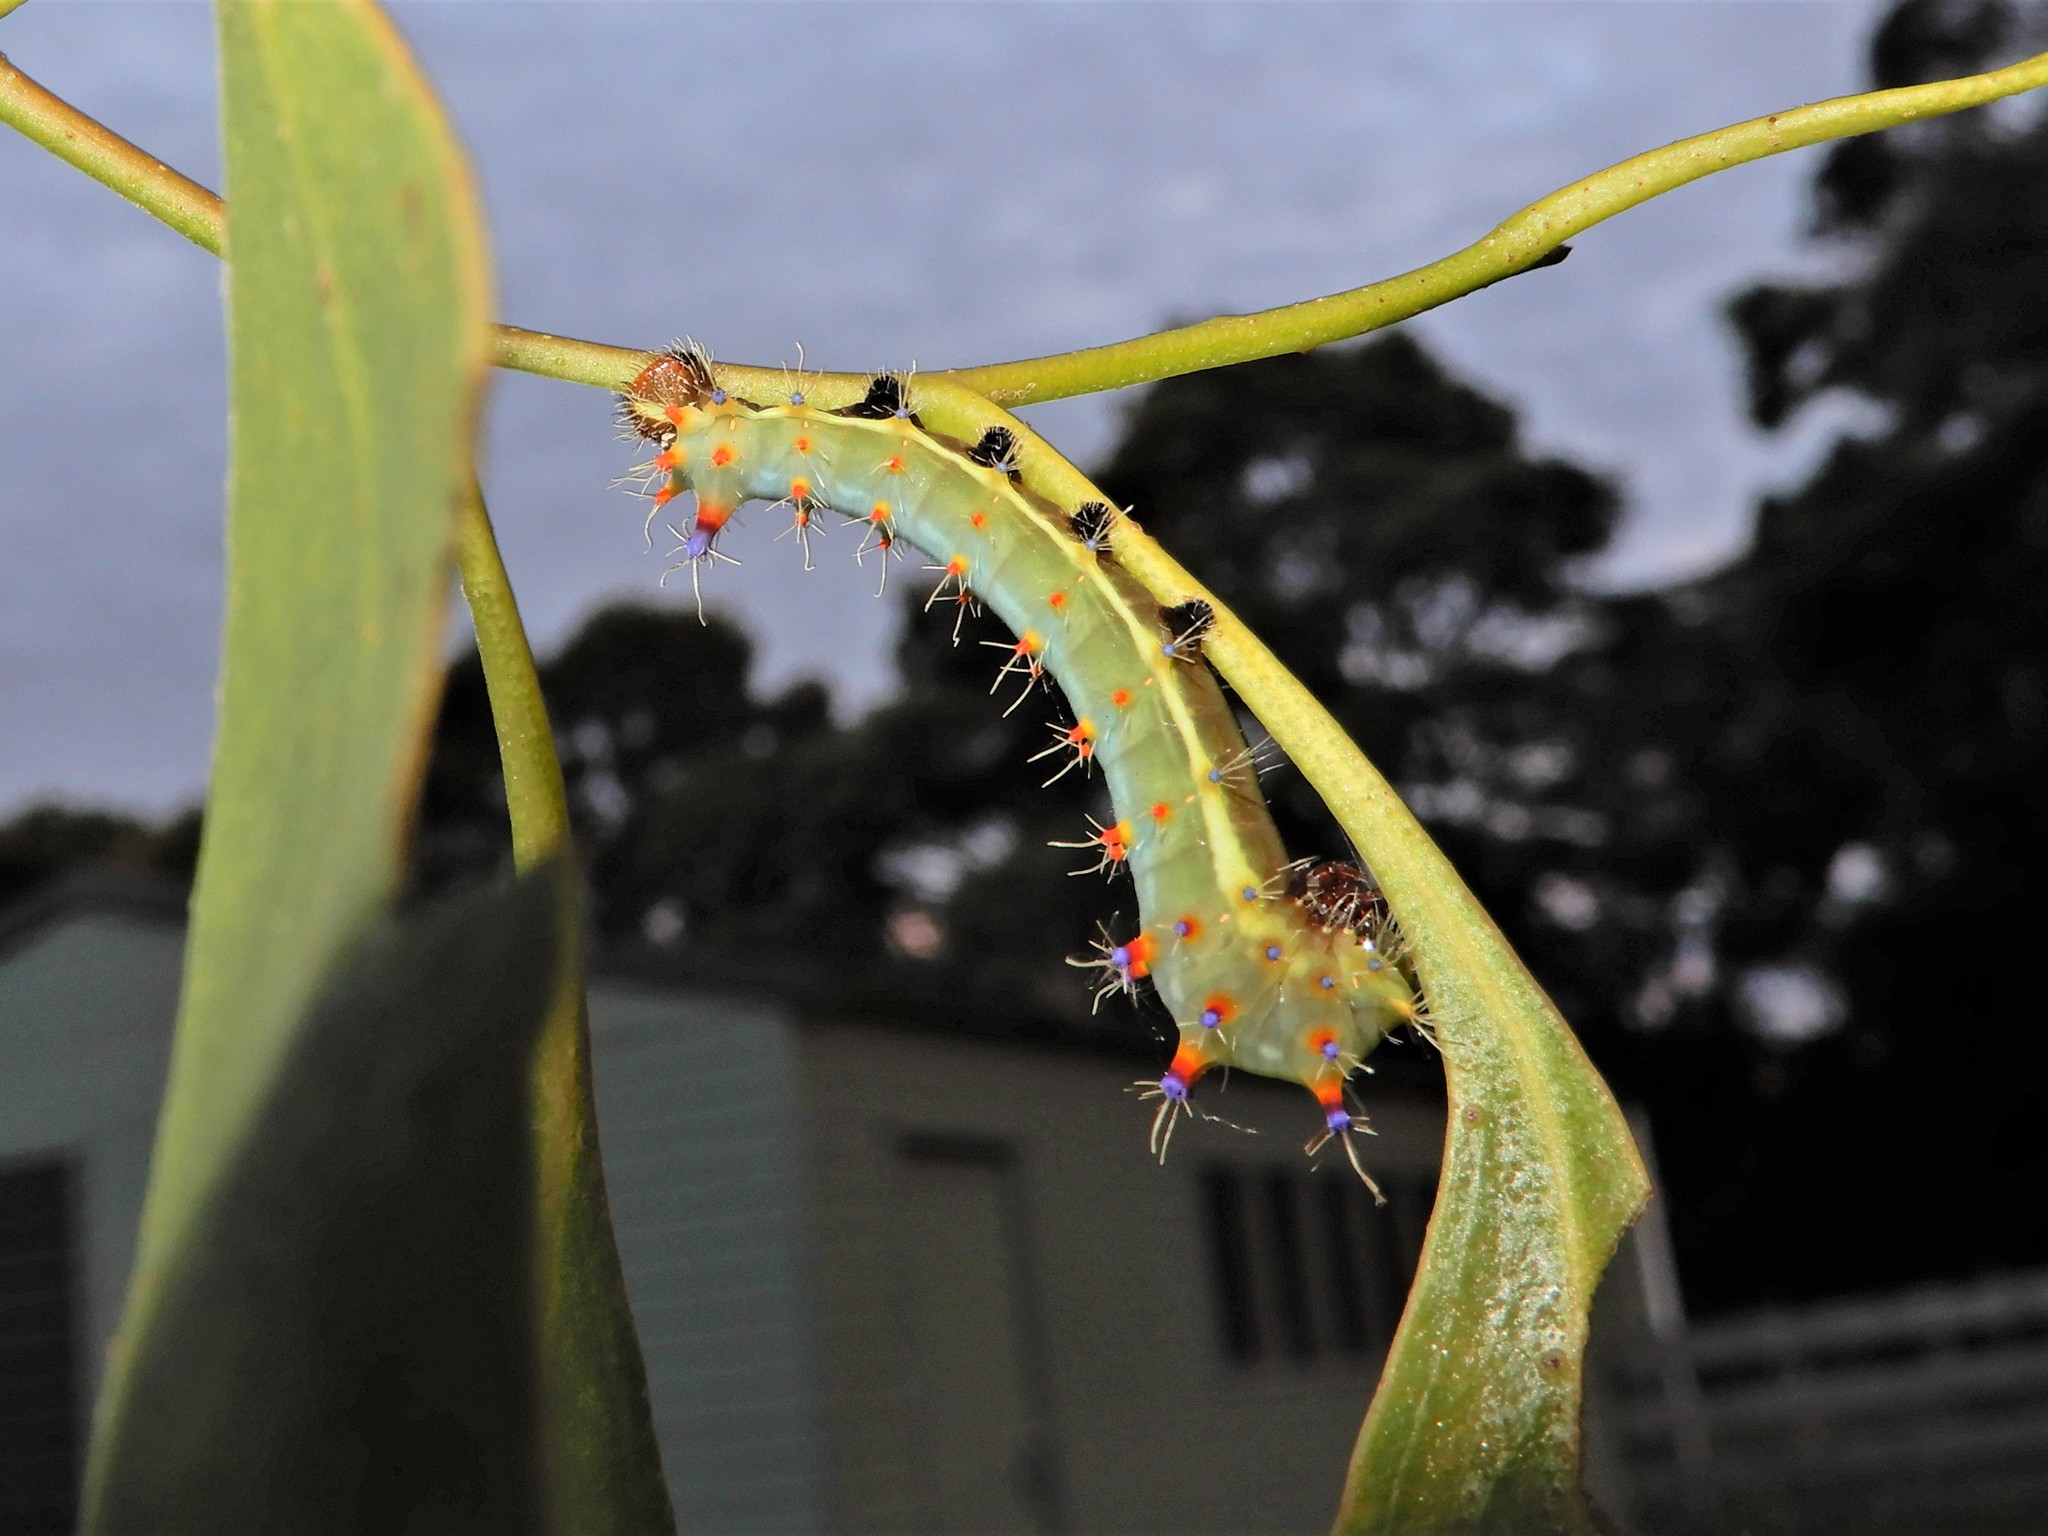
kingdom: Animalia
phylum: Arthropoda
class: Insecta
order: Lepidoptera
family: Saturniidae
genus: Opodiphthera
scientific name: Opodiphthera
